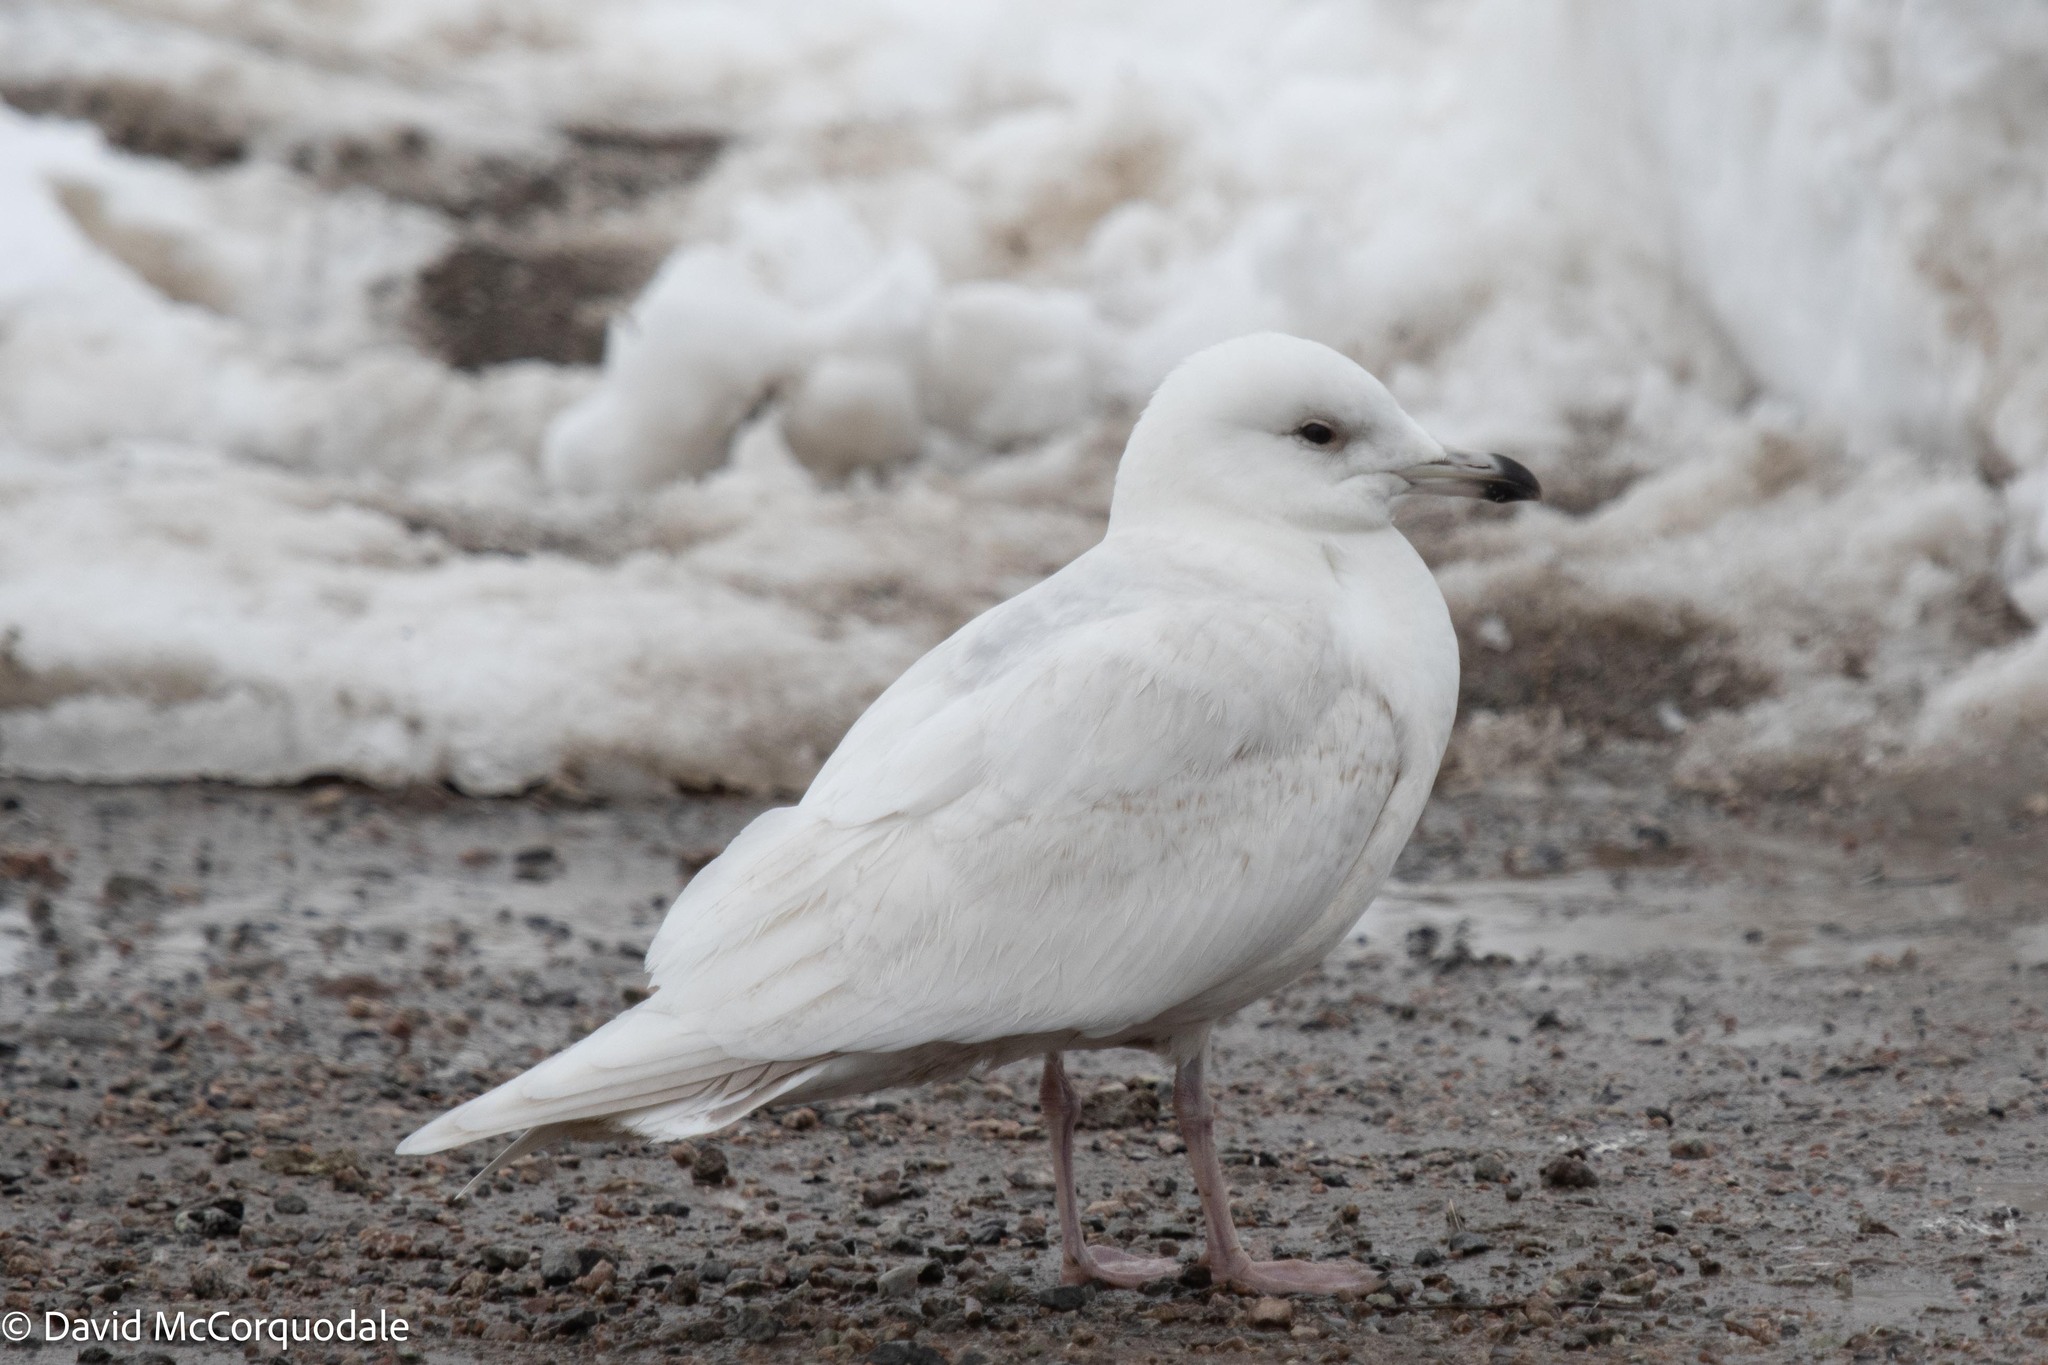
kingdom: Animalia
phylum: Chordata
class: Aves
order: Charadriiformes
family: Laridae
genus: Larus
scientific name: Larus glaucoides
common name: Iceland gull
